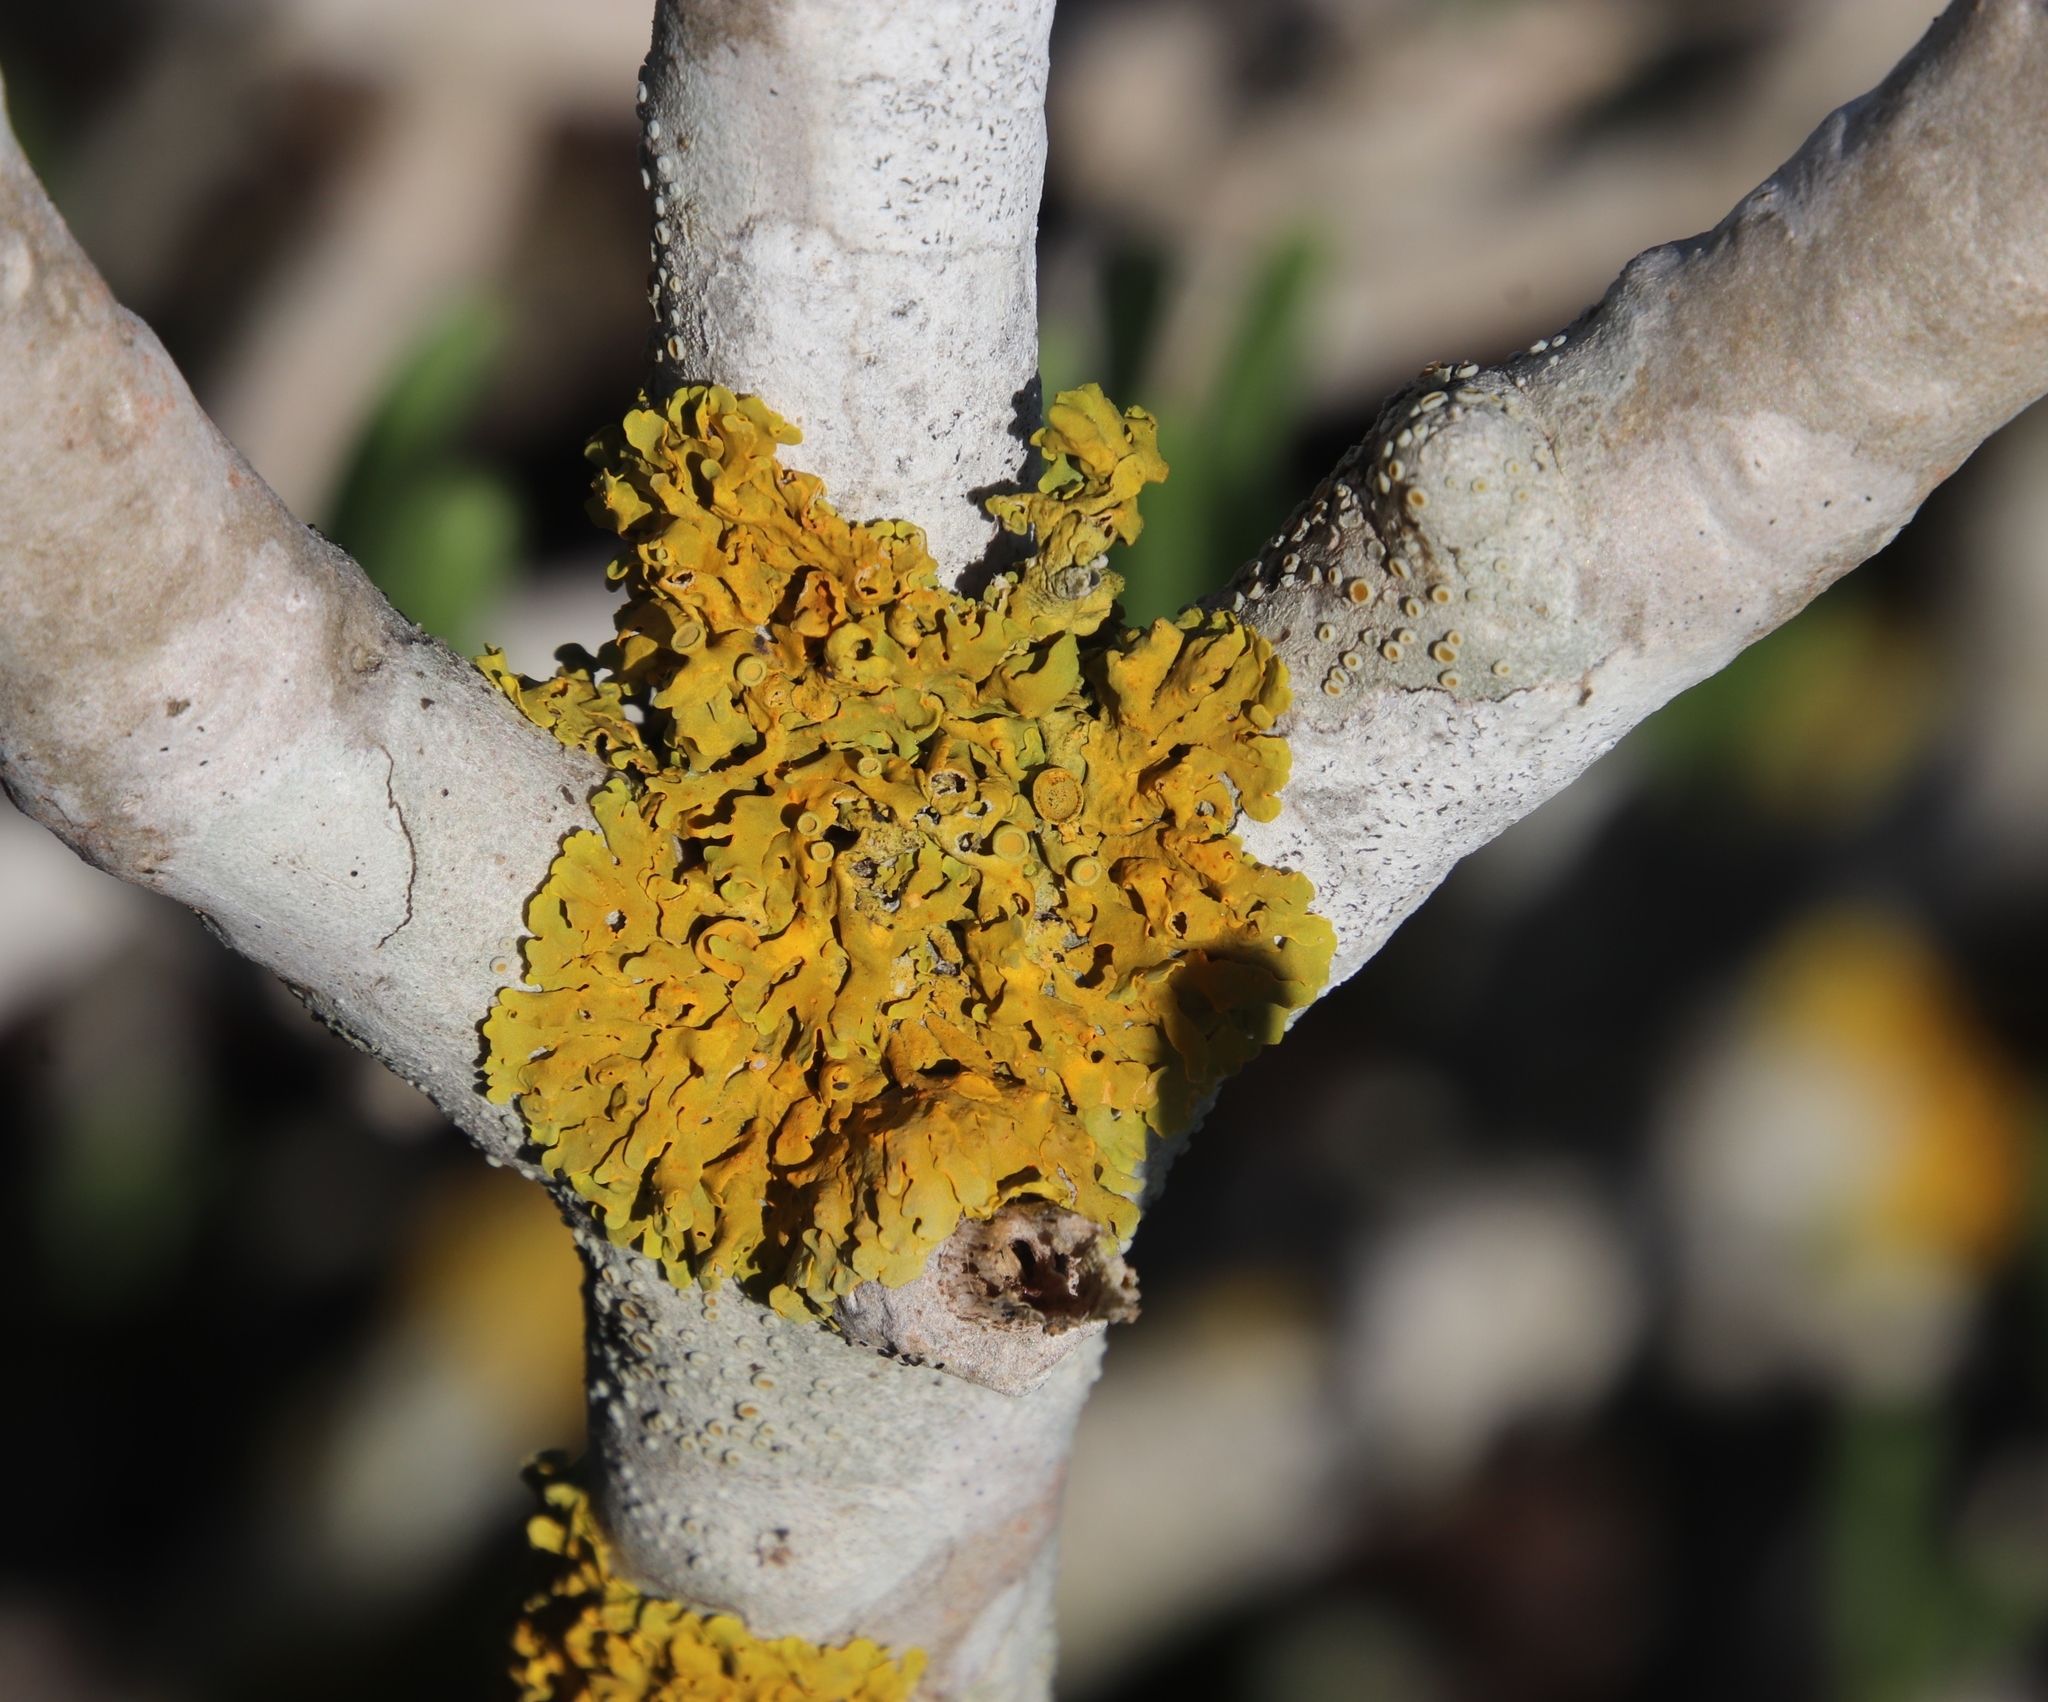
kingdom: Fungi
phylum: Ascomycota
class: Lecanoromycetes
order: Teloschistales
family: Teloschistaceae
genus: Xanthoria
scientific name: Xanthoria parietina
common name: Common orange lichen
